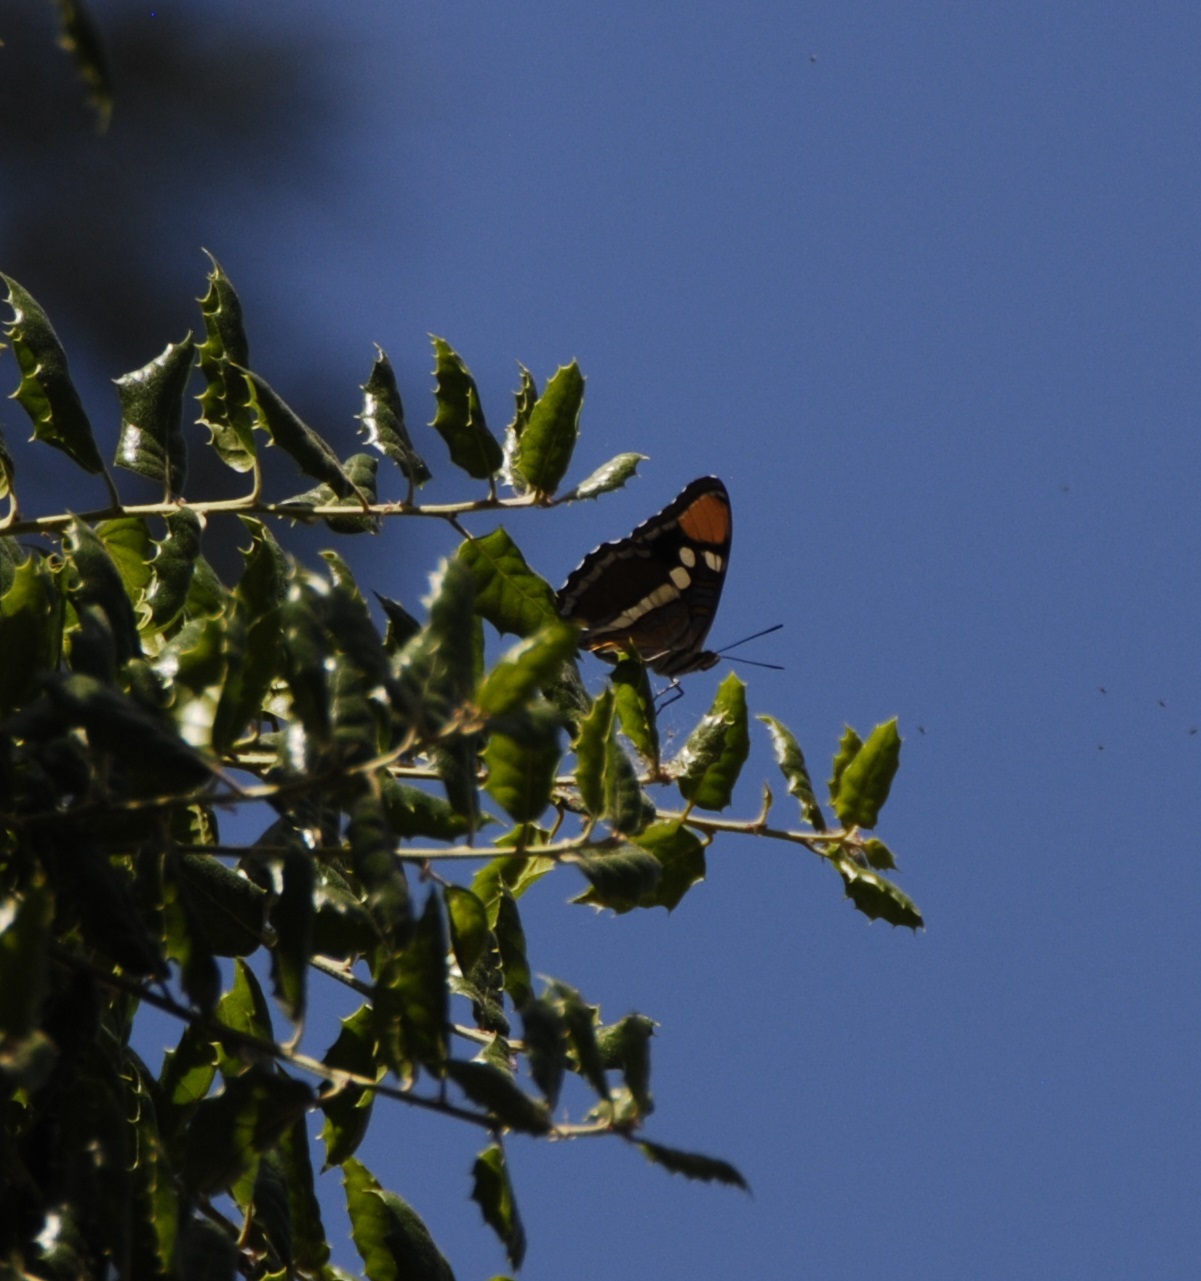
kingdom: Animalia
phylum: Arthropoda
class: Insecta
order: Lepidoptera
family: Nymphalidae
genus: Limenitis
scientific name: Limenitis bredowii
